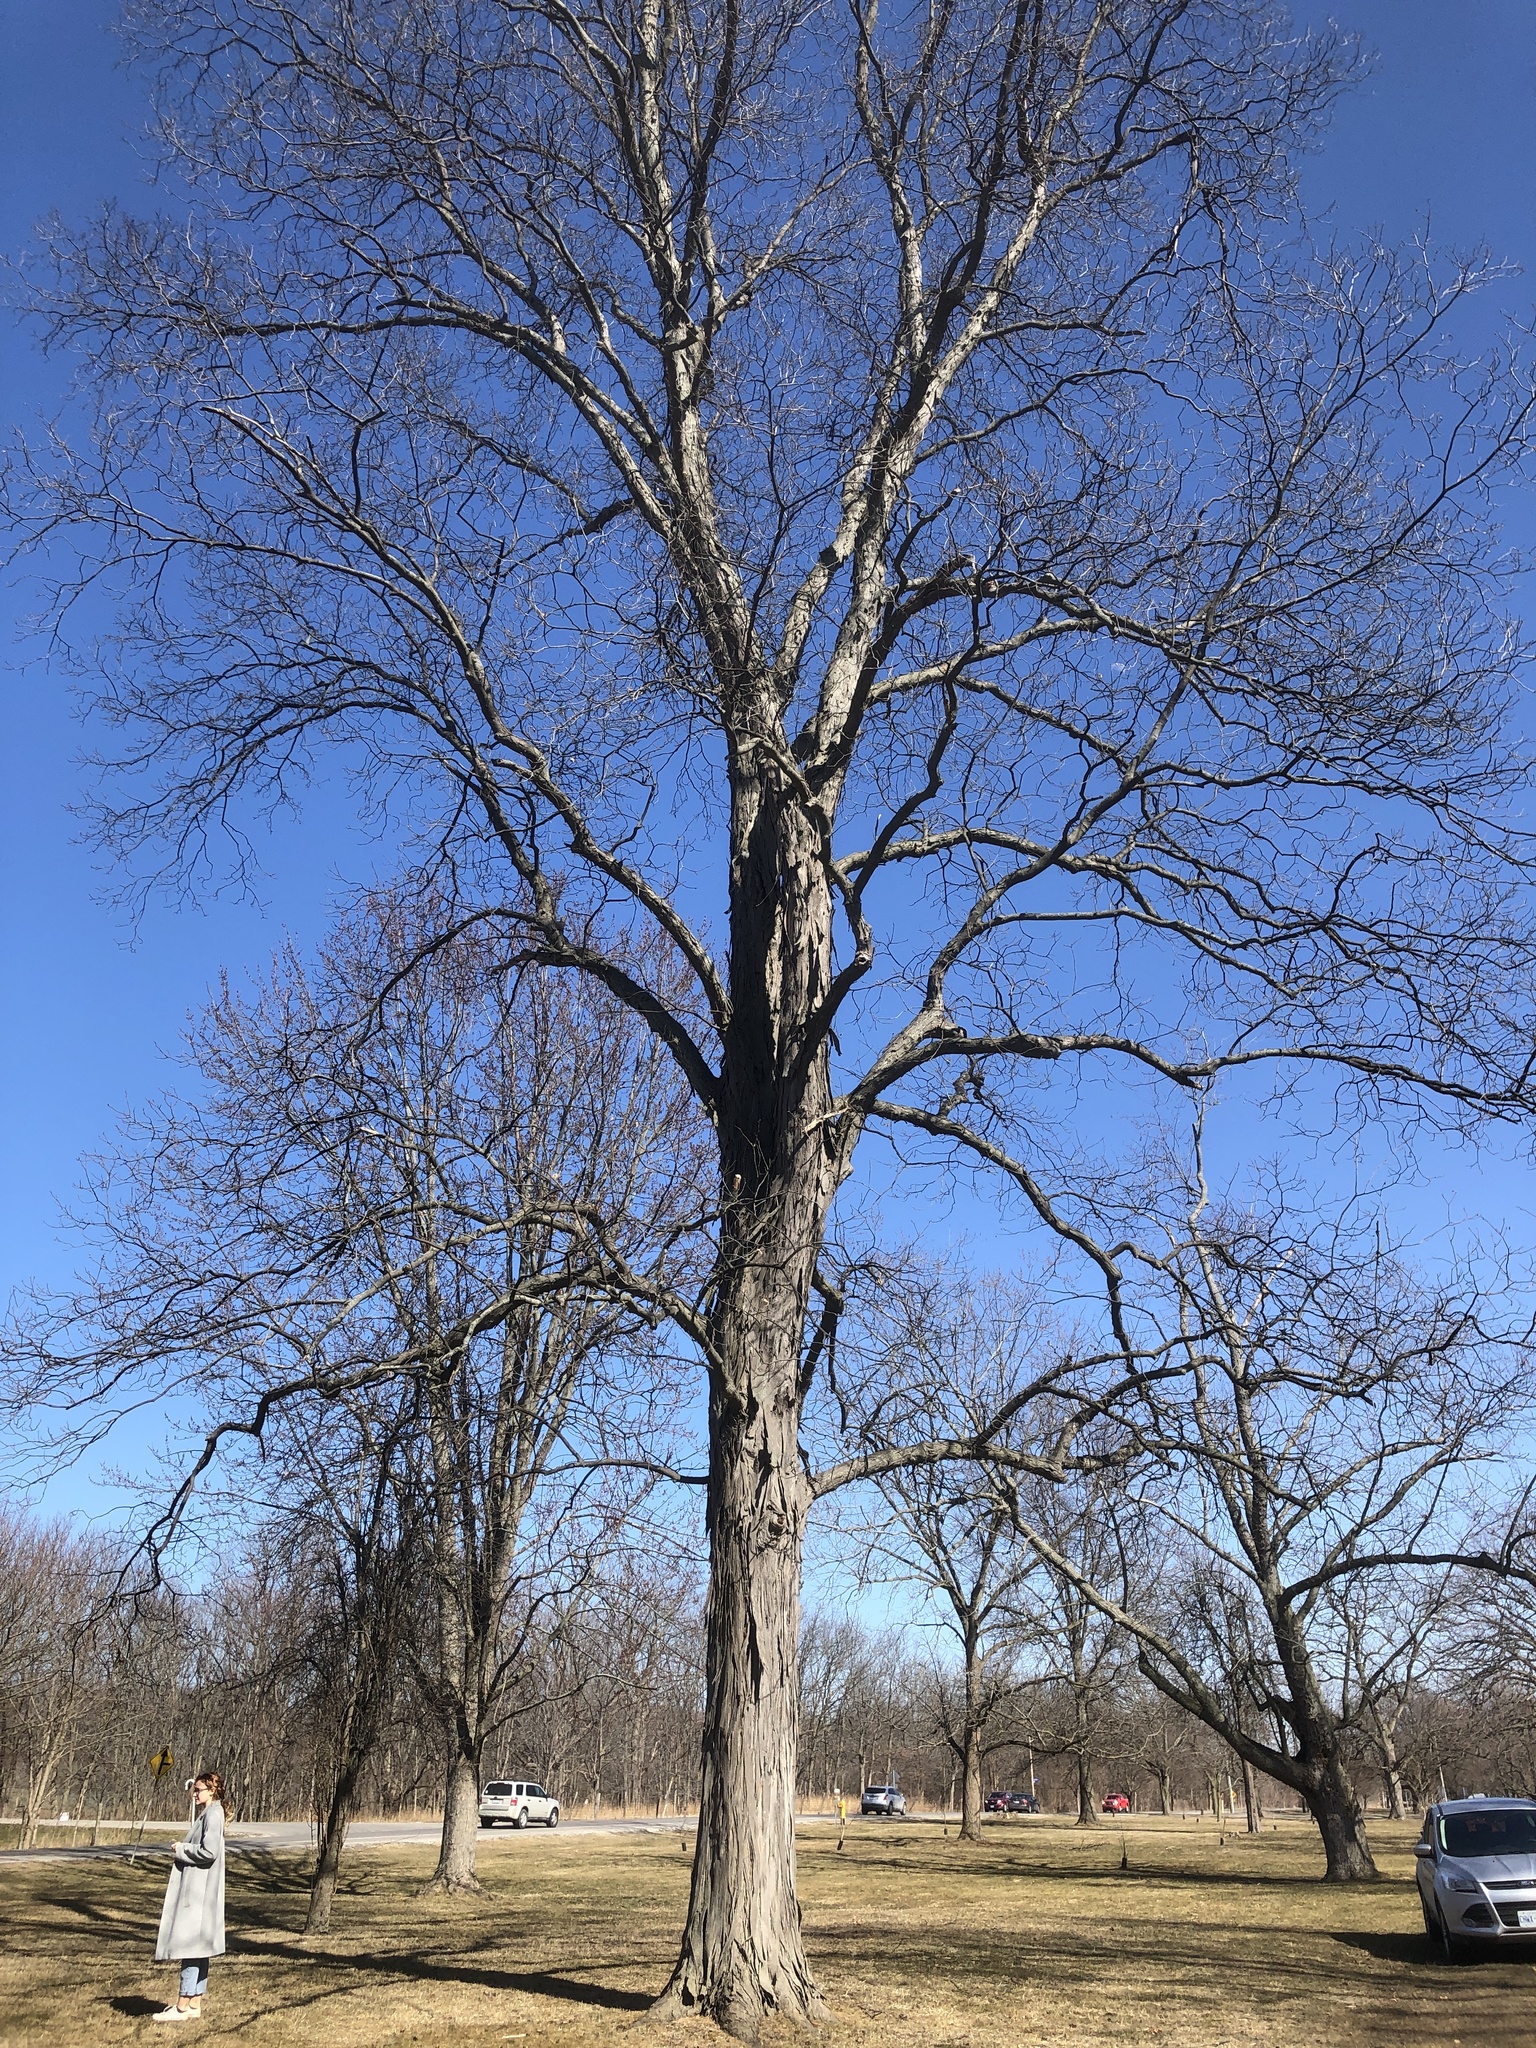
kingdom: Plantae
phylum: Tracheophyta
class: Magnoliopsida
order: Fagales
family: Juglandaceae
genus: Carya
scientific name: Carya ovata
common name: Shagbark hickory
